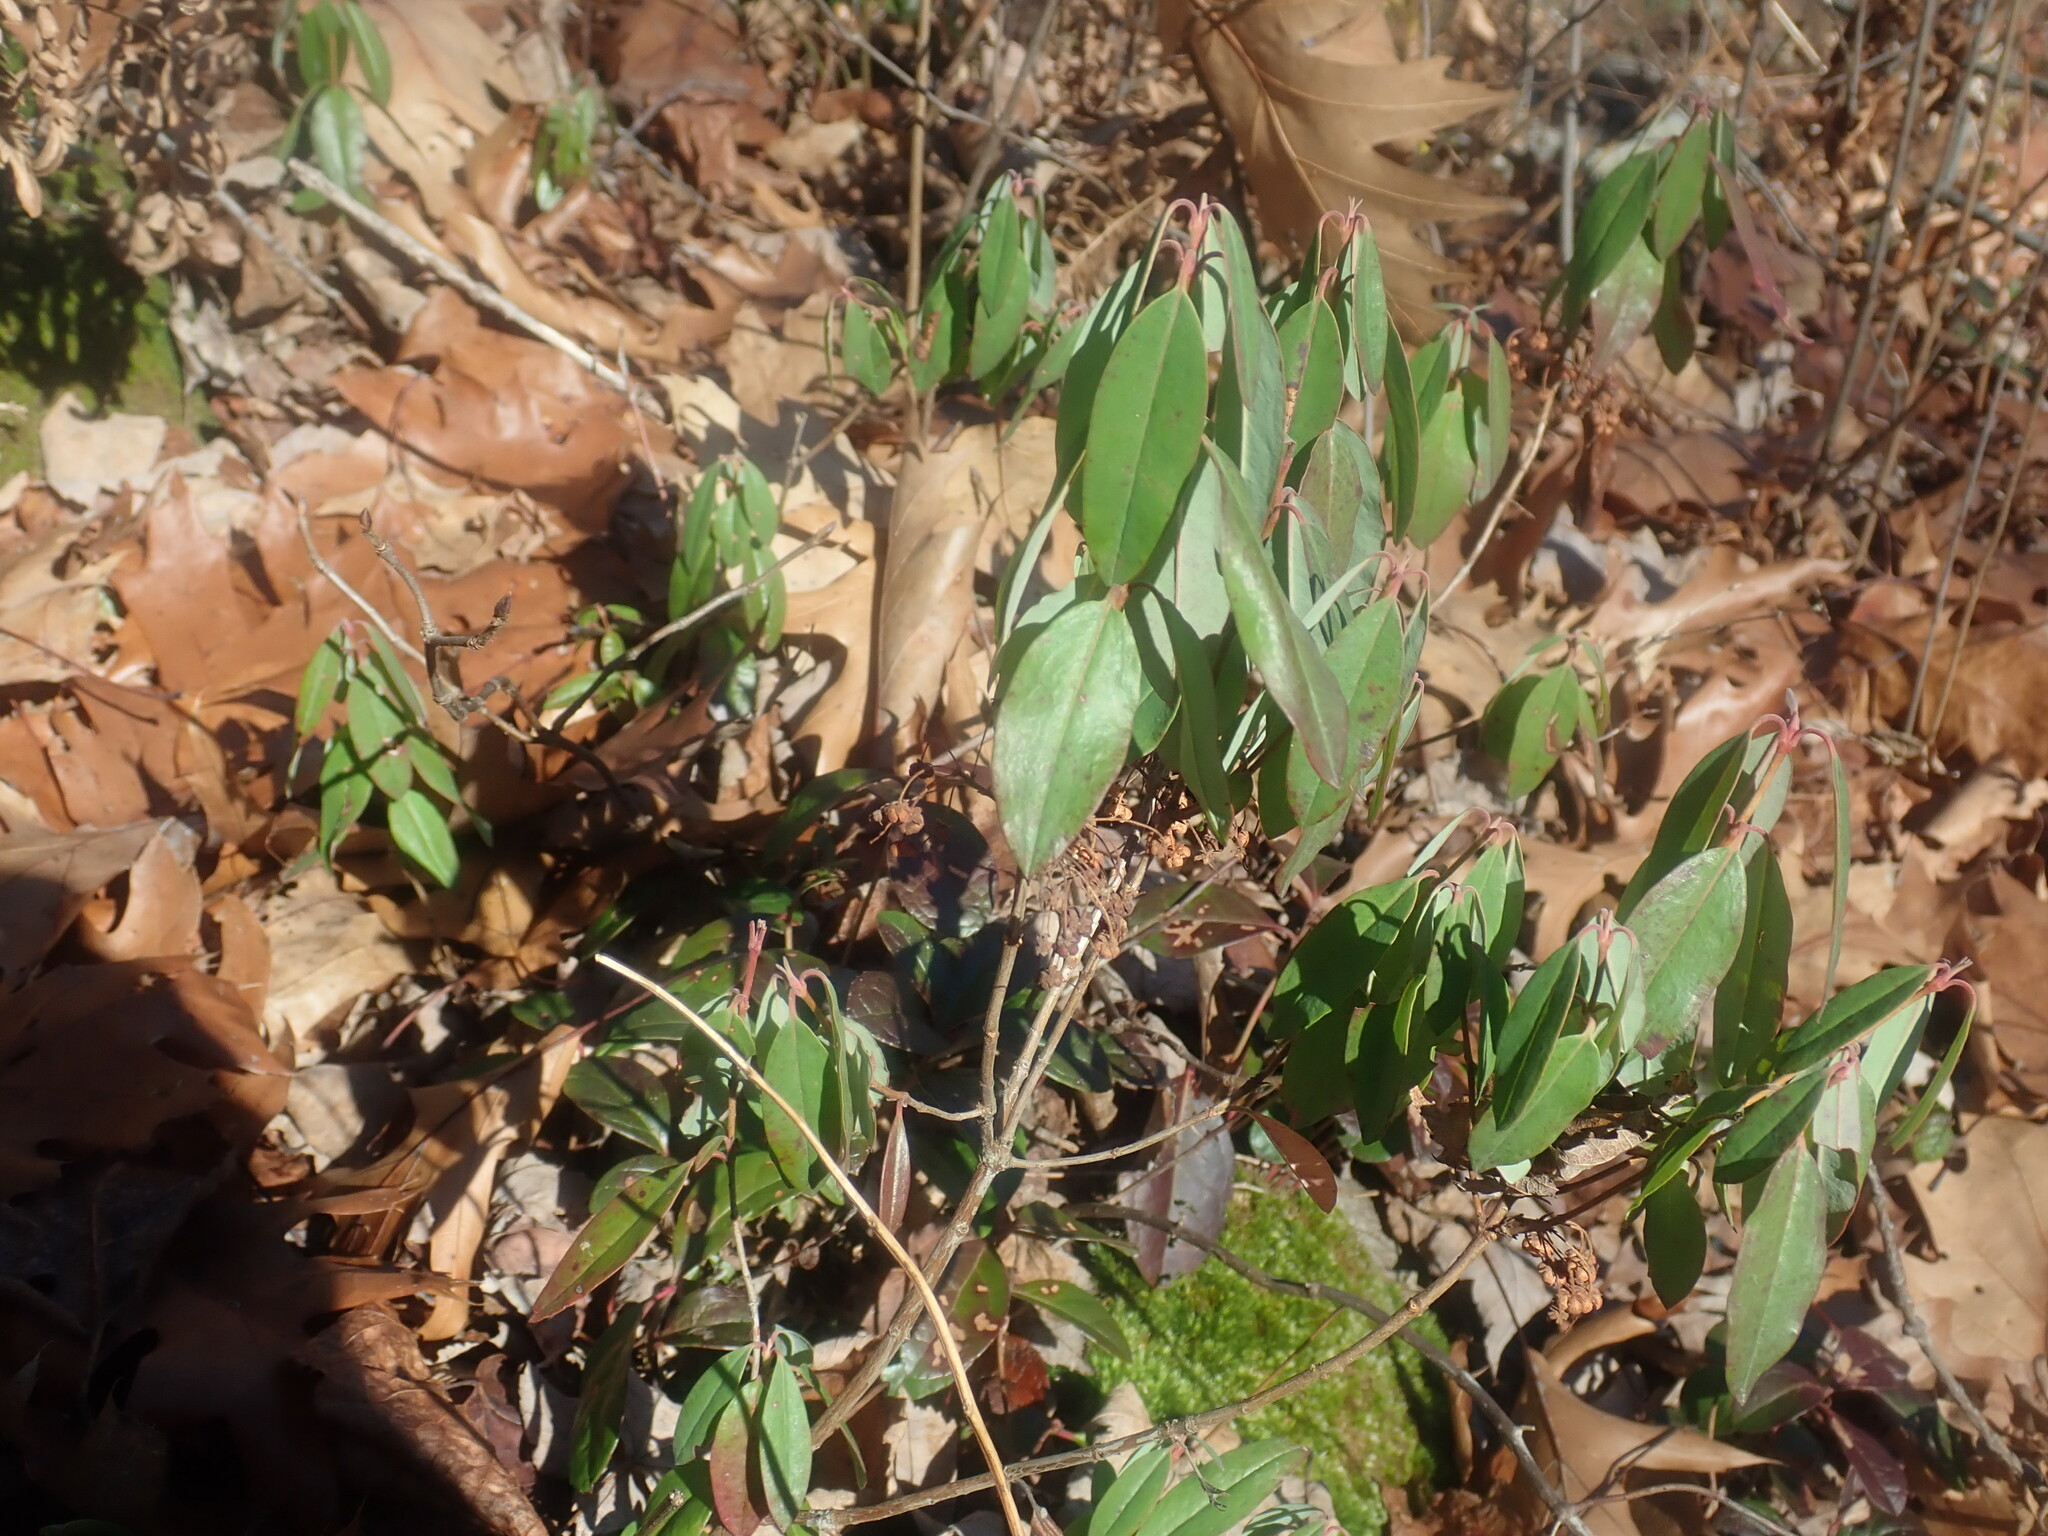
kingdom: Plantae
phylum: Tracheophyta
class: Magnoliopsida
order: Ericales
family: Ericaceae
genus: Kalmia
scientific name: Kalmia angustifolia
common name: Sheep-laurel
